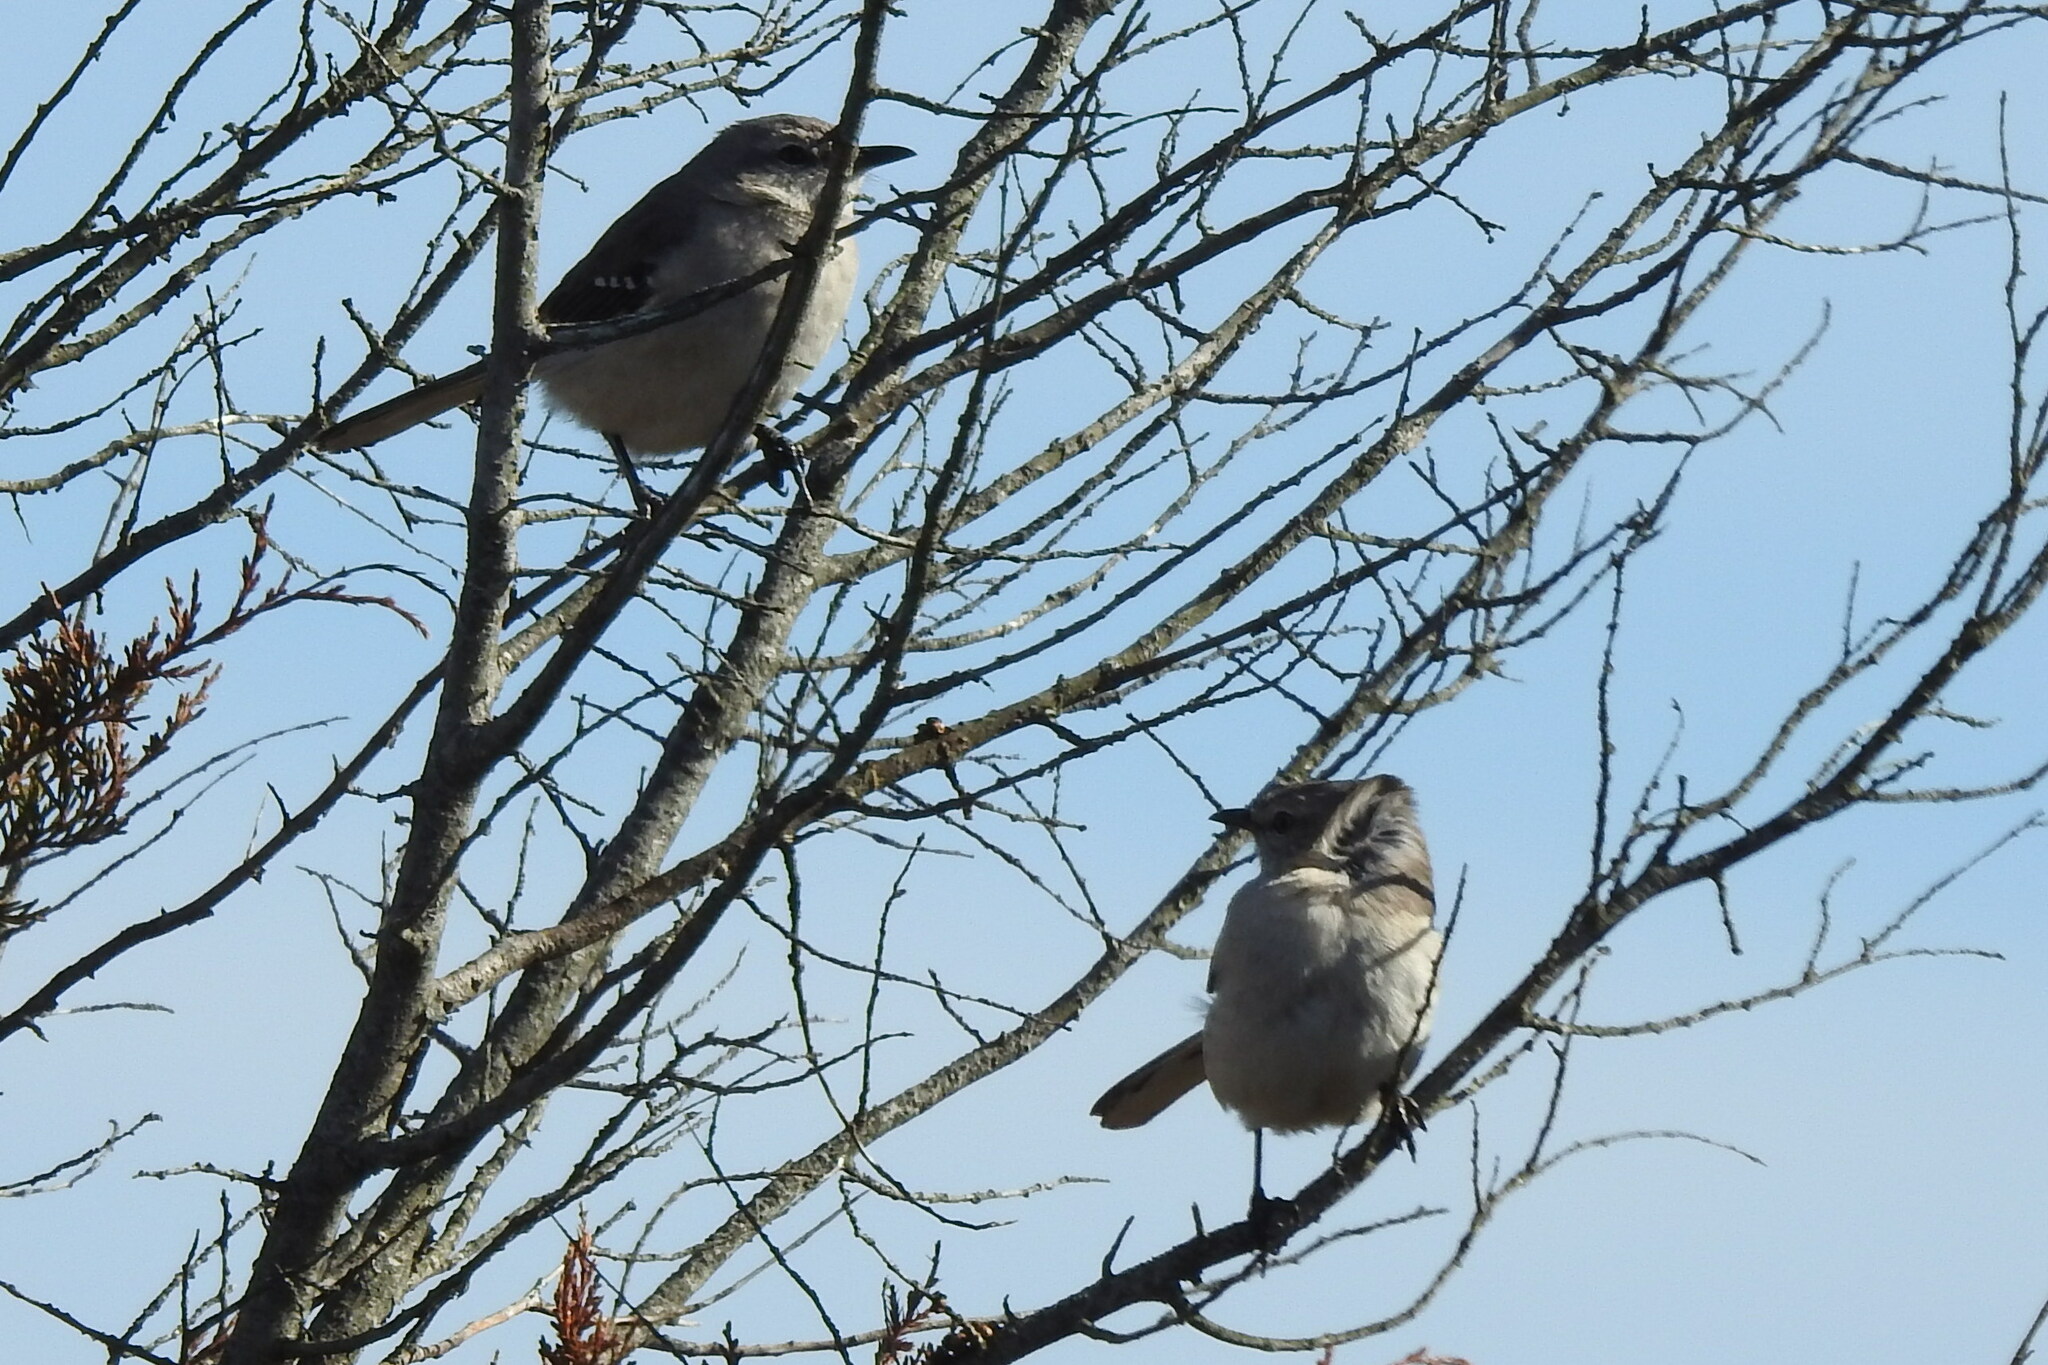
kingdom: Animalia
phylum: Chordata
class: Aves
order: Passeriformes
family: Mimidae
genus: Mimus
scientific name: Mimus polyglottos
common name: Northern mockingbird
